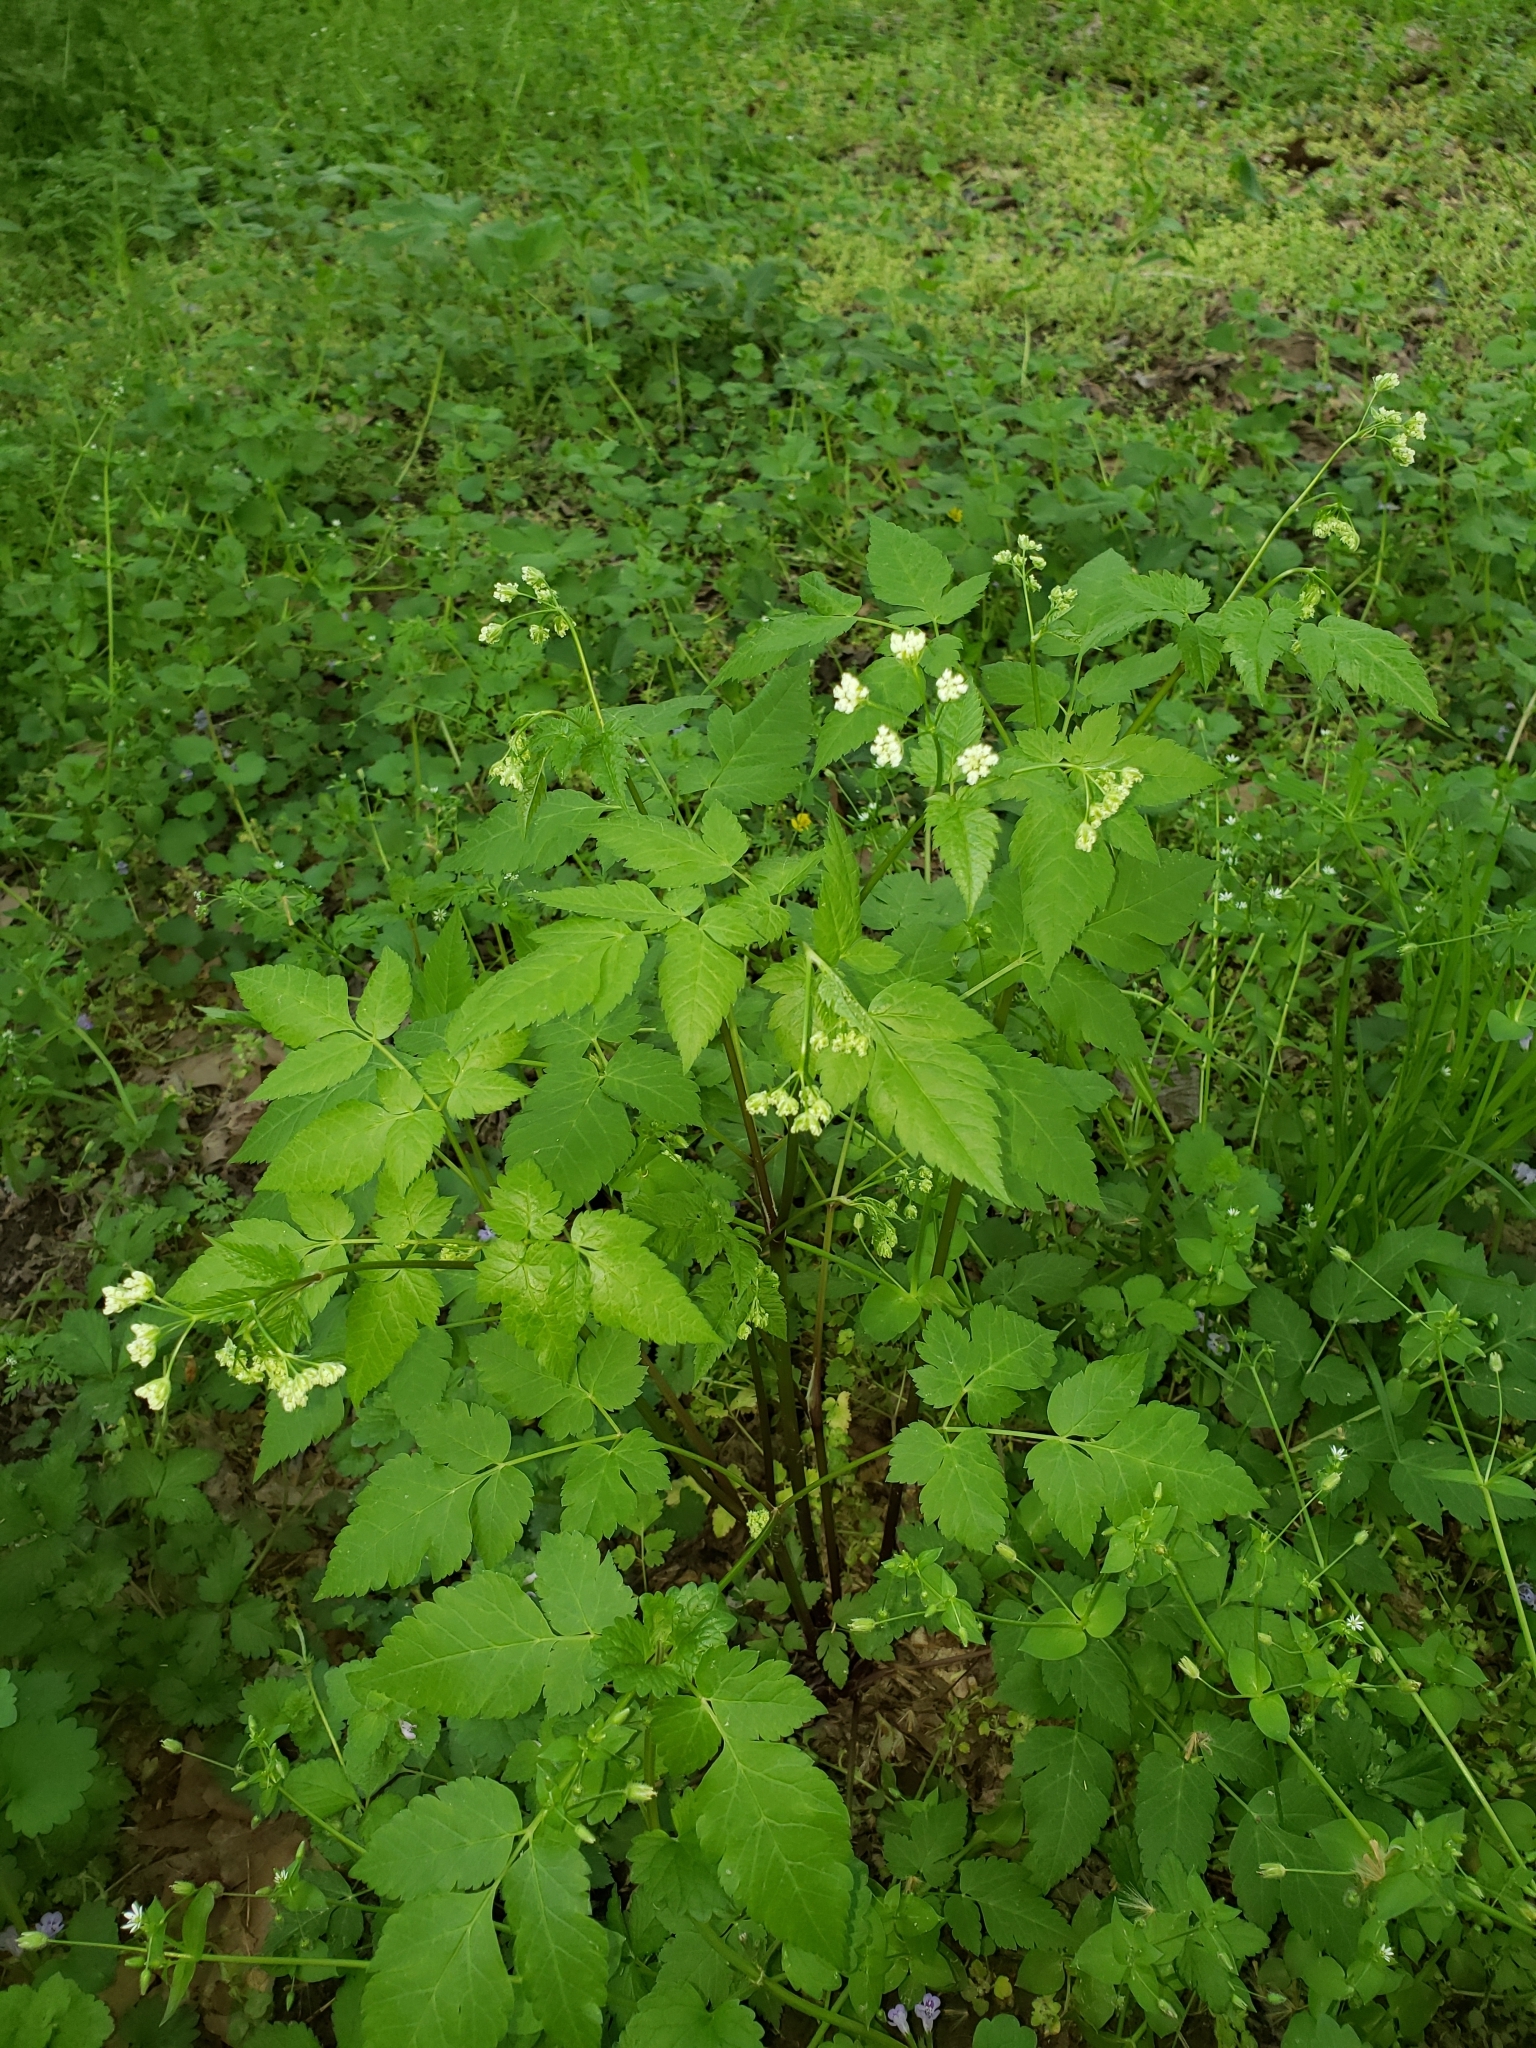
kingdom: Plantae
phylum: Tracheophyta
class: Magnoliopsida
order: Apiales
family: Apiaceae
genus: Osmorhiza
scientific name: Osmorhiza longistylis
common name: Smooth sweet cicely
